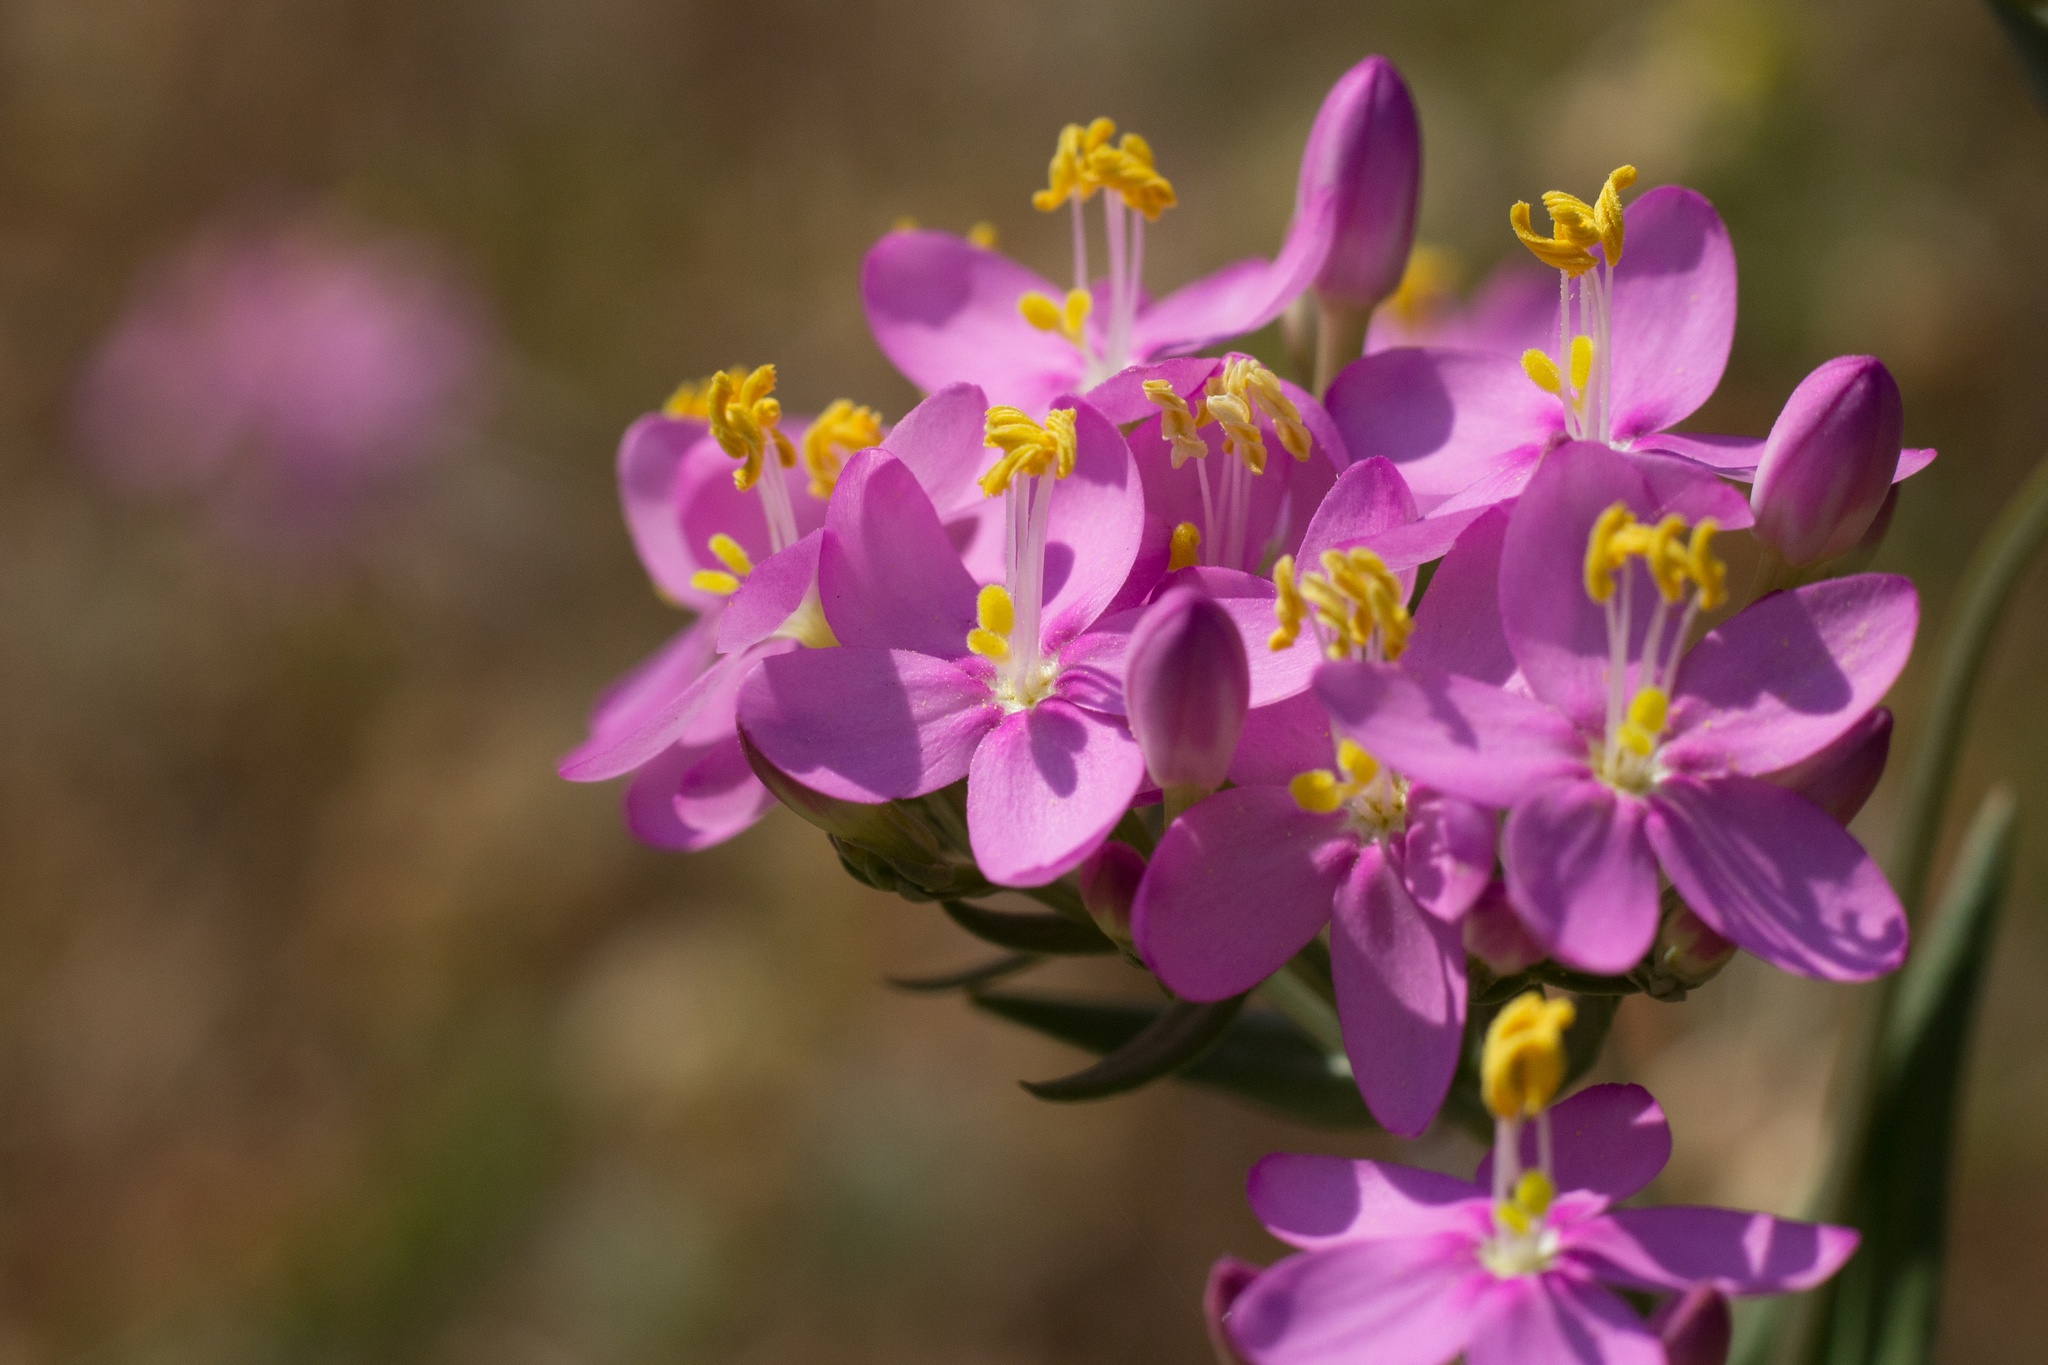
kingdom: Plantae
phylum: Tracheophyta
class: Magnoliopsida
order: Gentianales
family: Gentianaceae
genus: Centaurium
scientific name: Centaurium erythraea
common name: Common centaury
